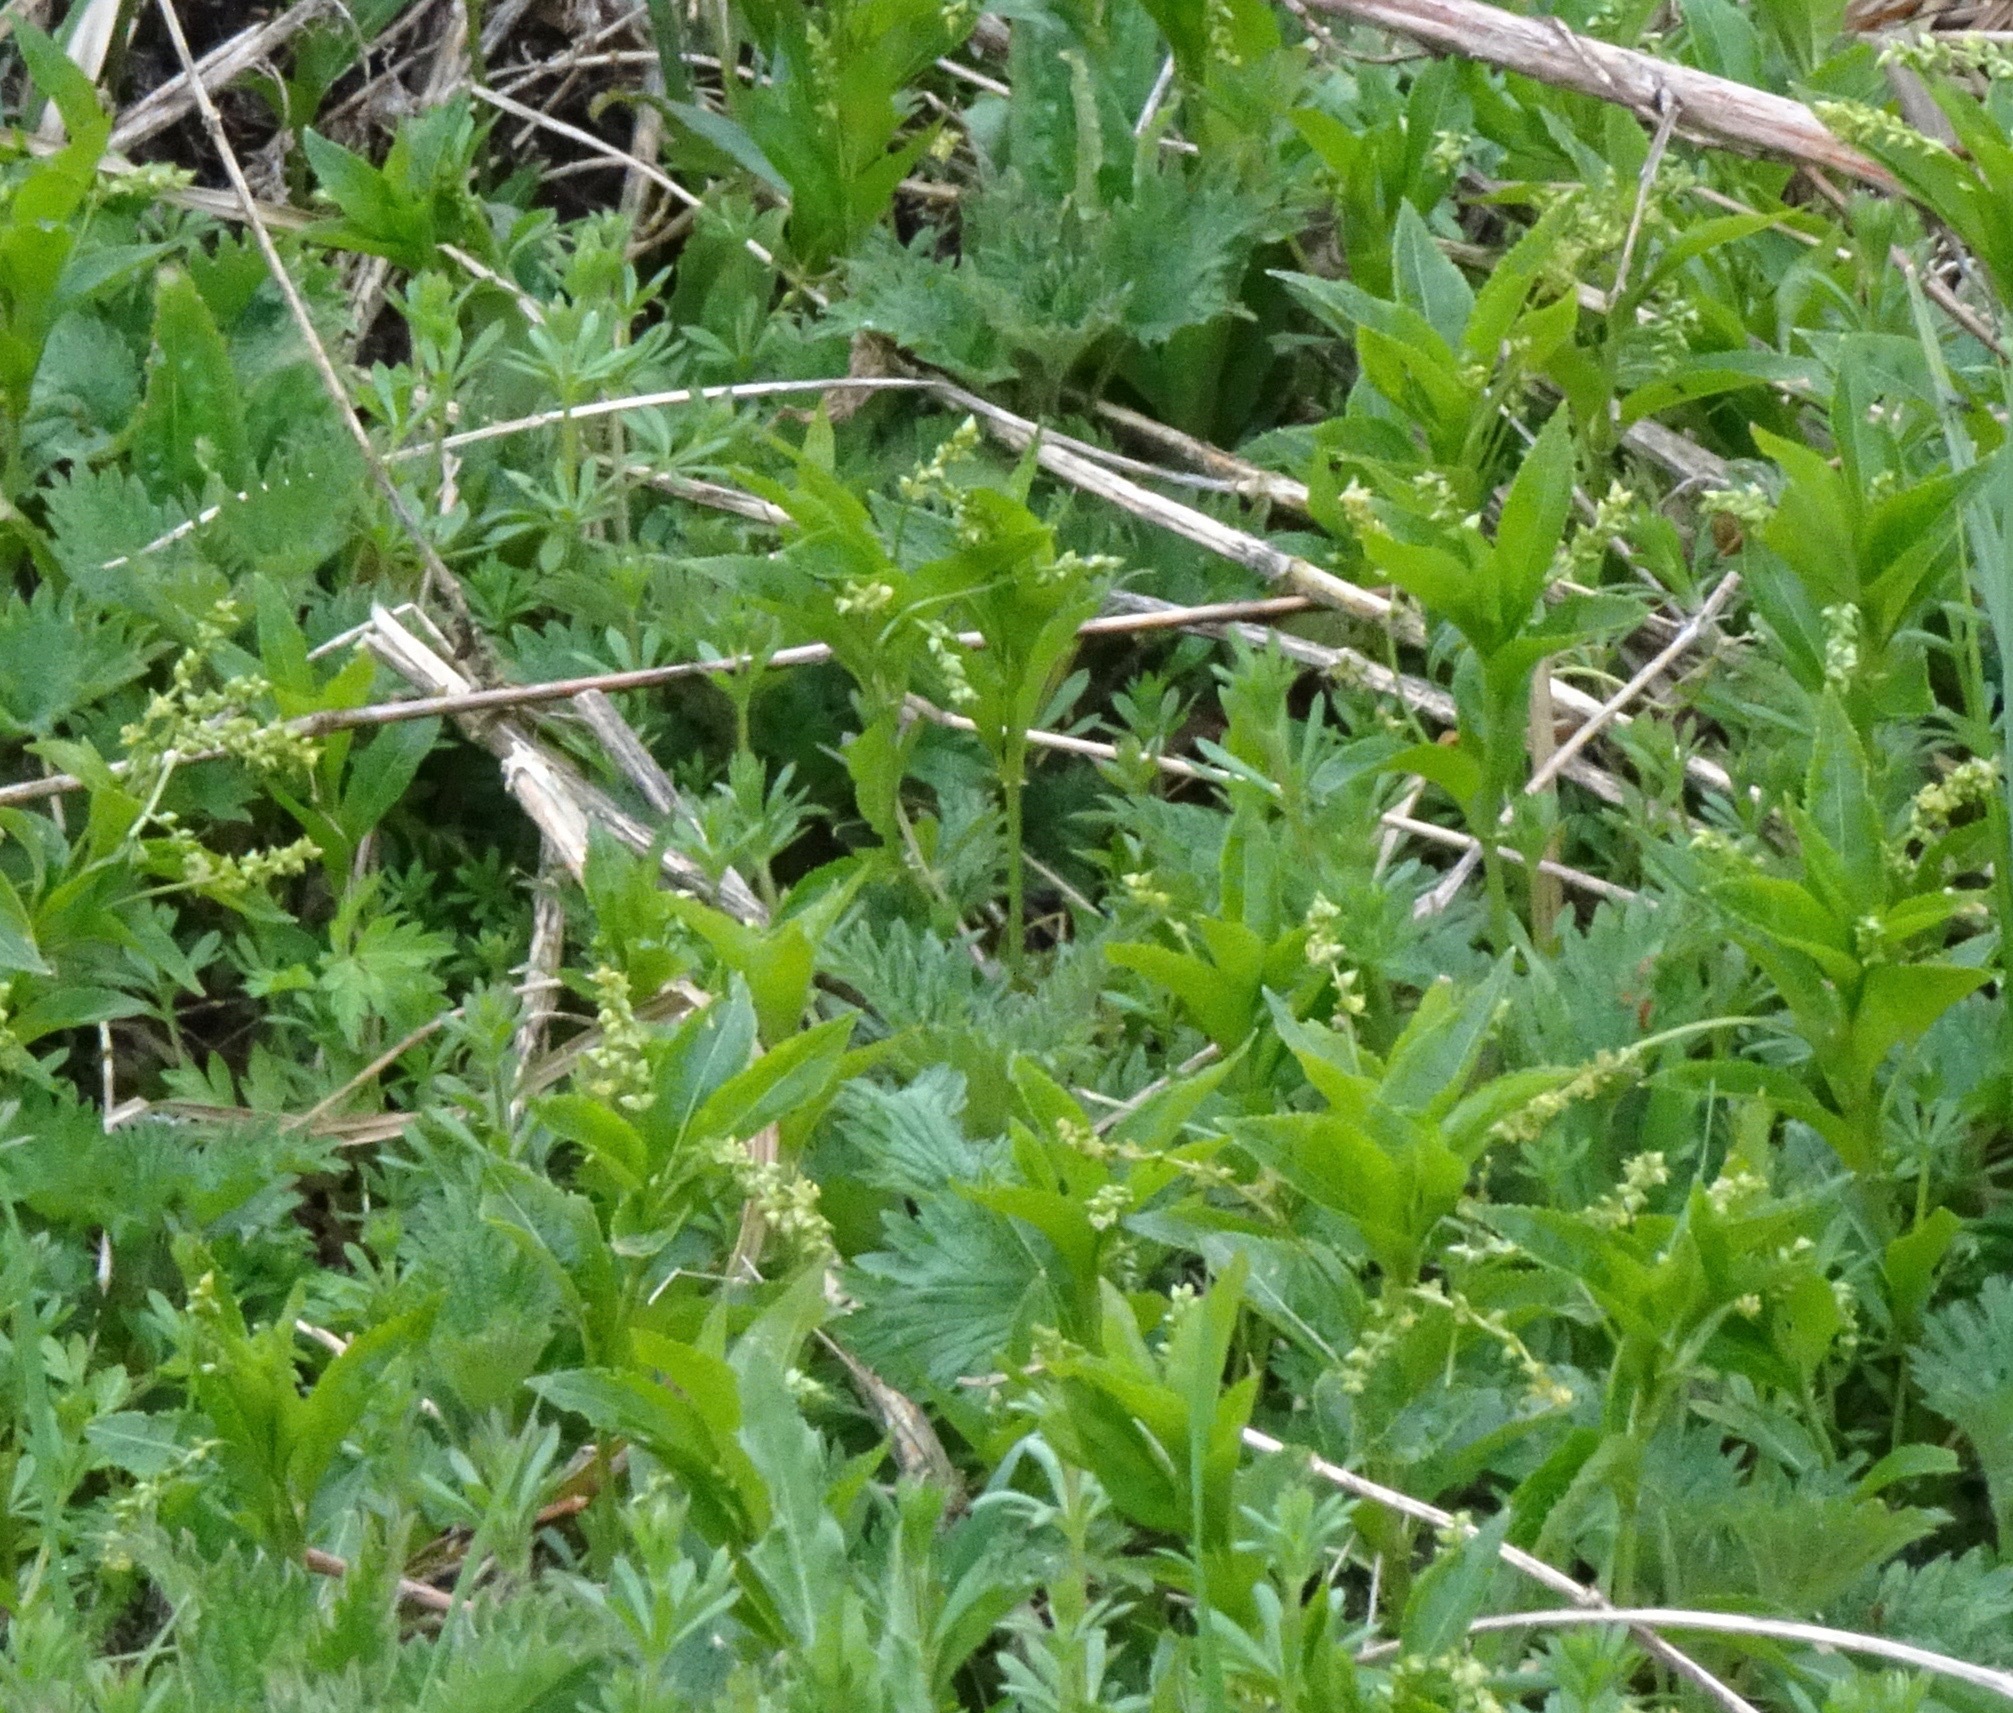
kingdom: Plantae
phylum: Tracheophyta
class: Magnoliopsida
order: Malpighiales
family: Euphorbiaceae
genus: Mercurialis
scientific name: Mercurialis perennis
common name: Dog mercury
